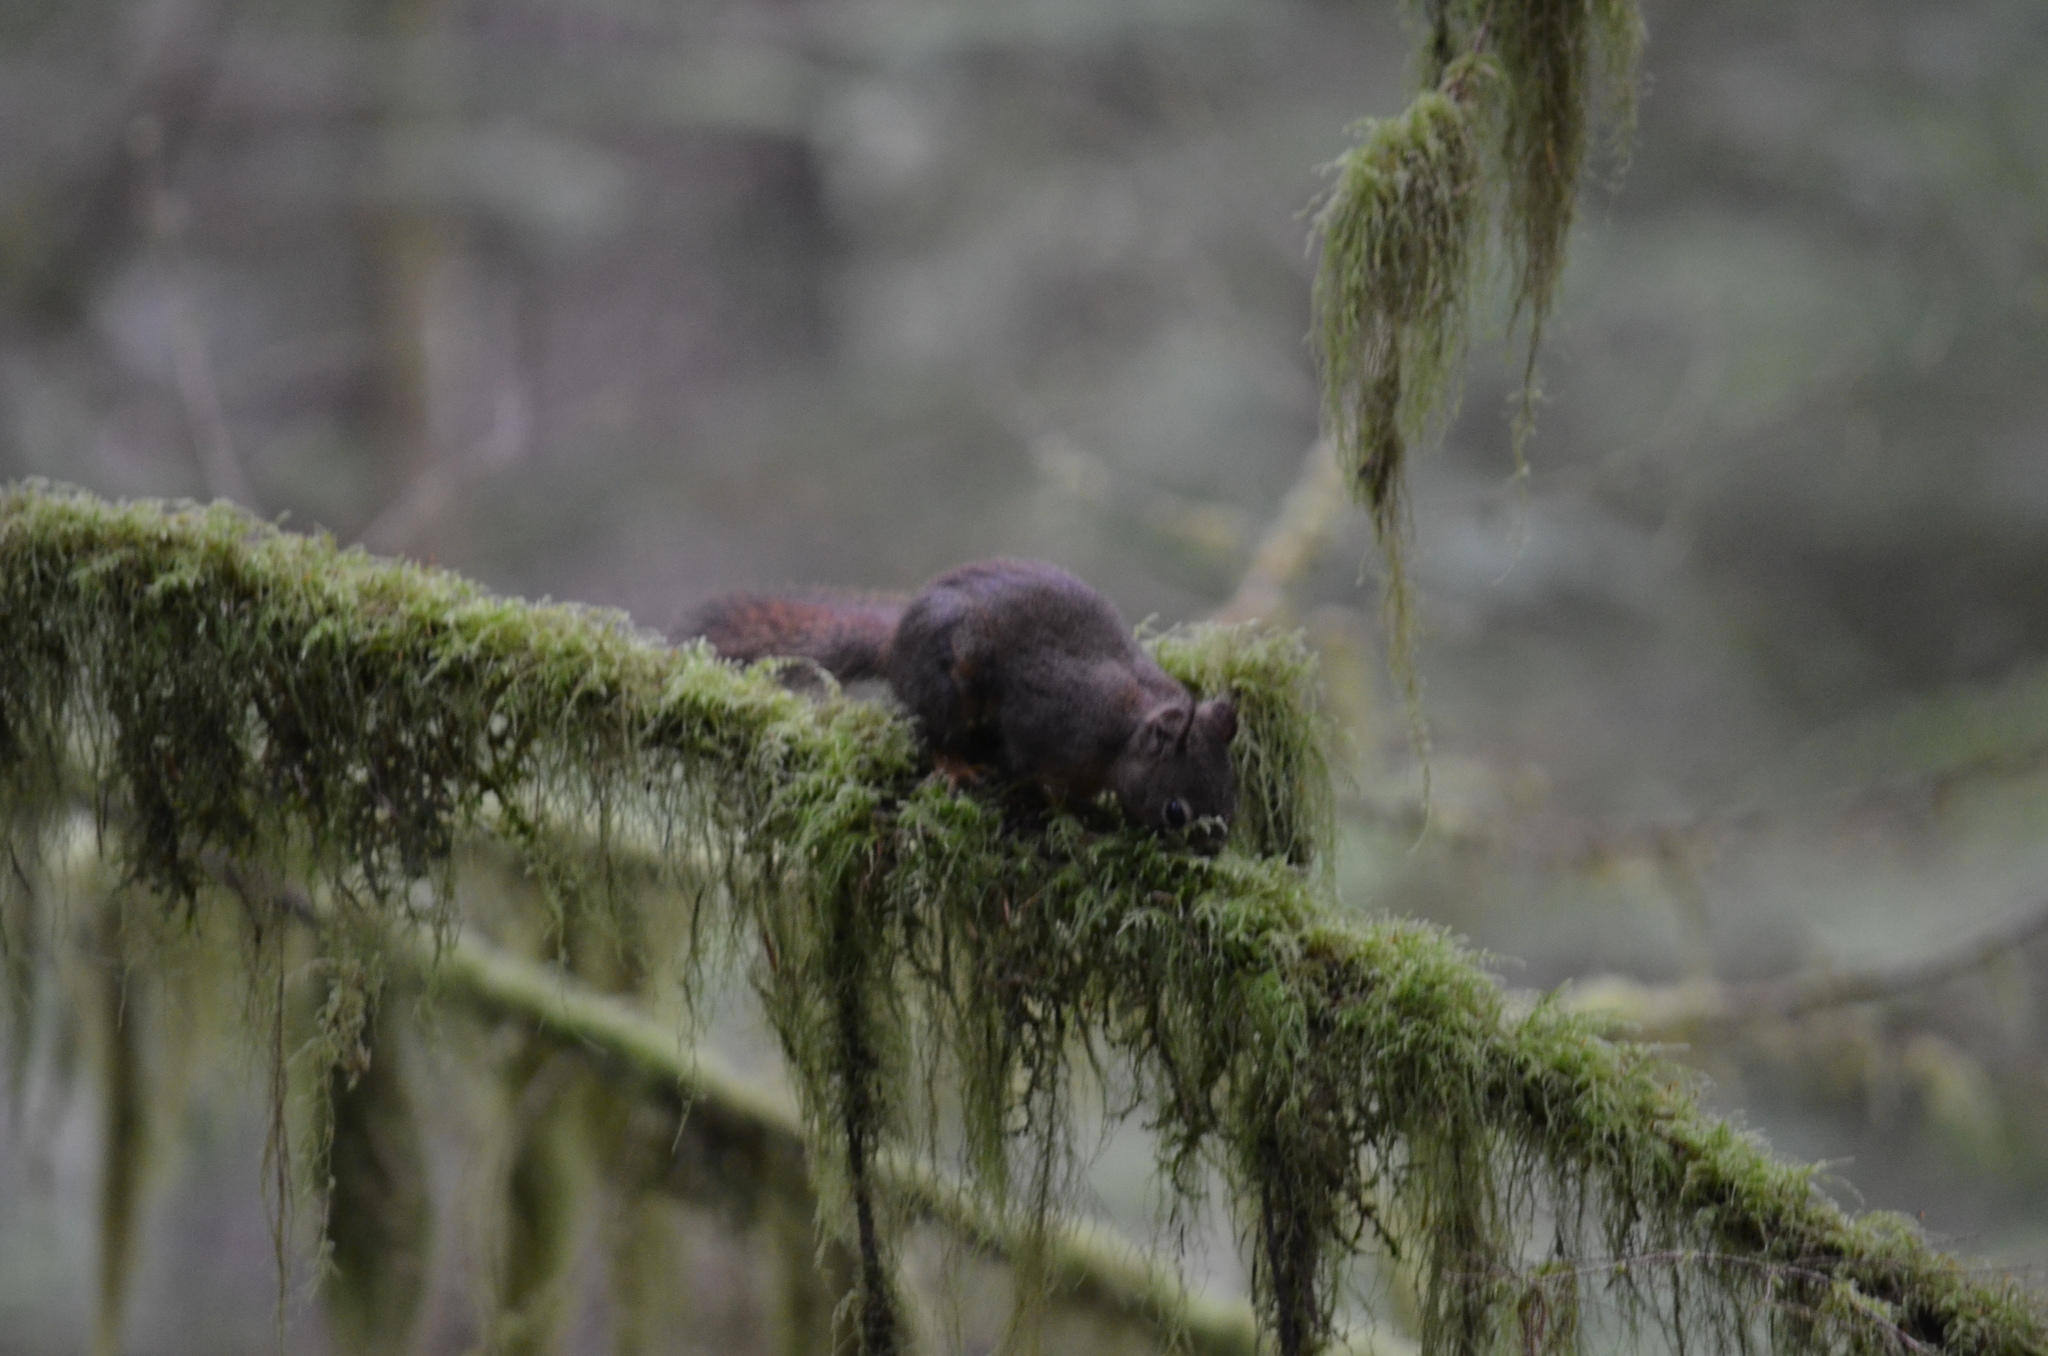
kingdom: Animalia
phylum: Chordata
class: Mammalia
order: Rodentia
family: Sciuridae
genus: Tamiasciurus
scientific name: Tamiasciurus hudsonicus
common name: Red squirrel
